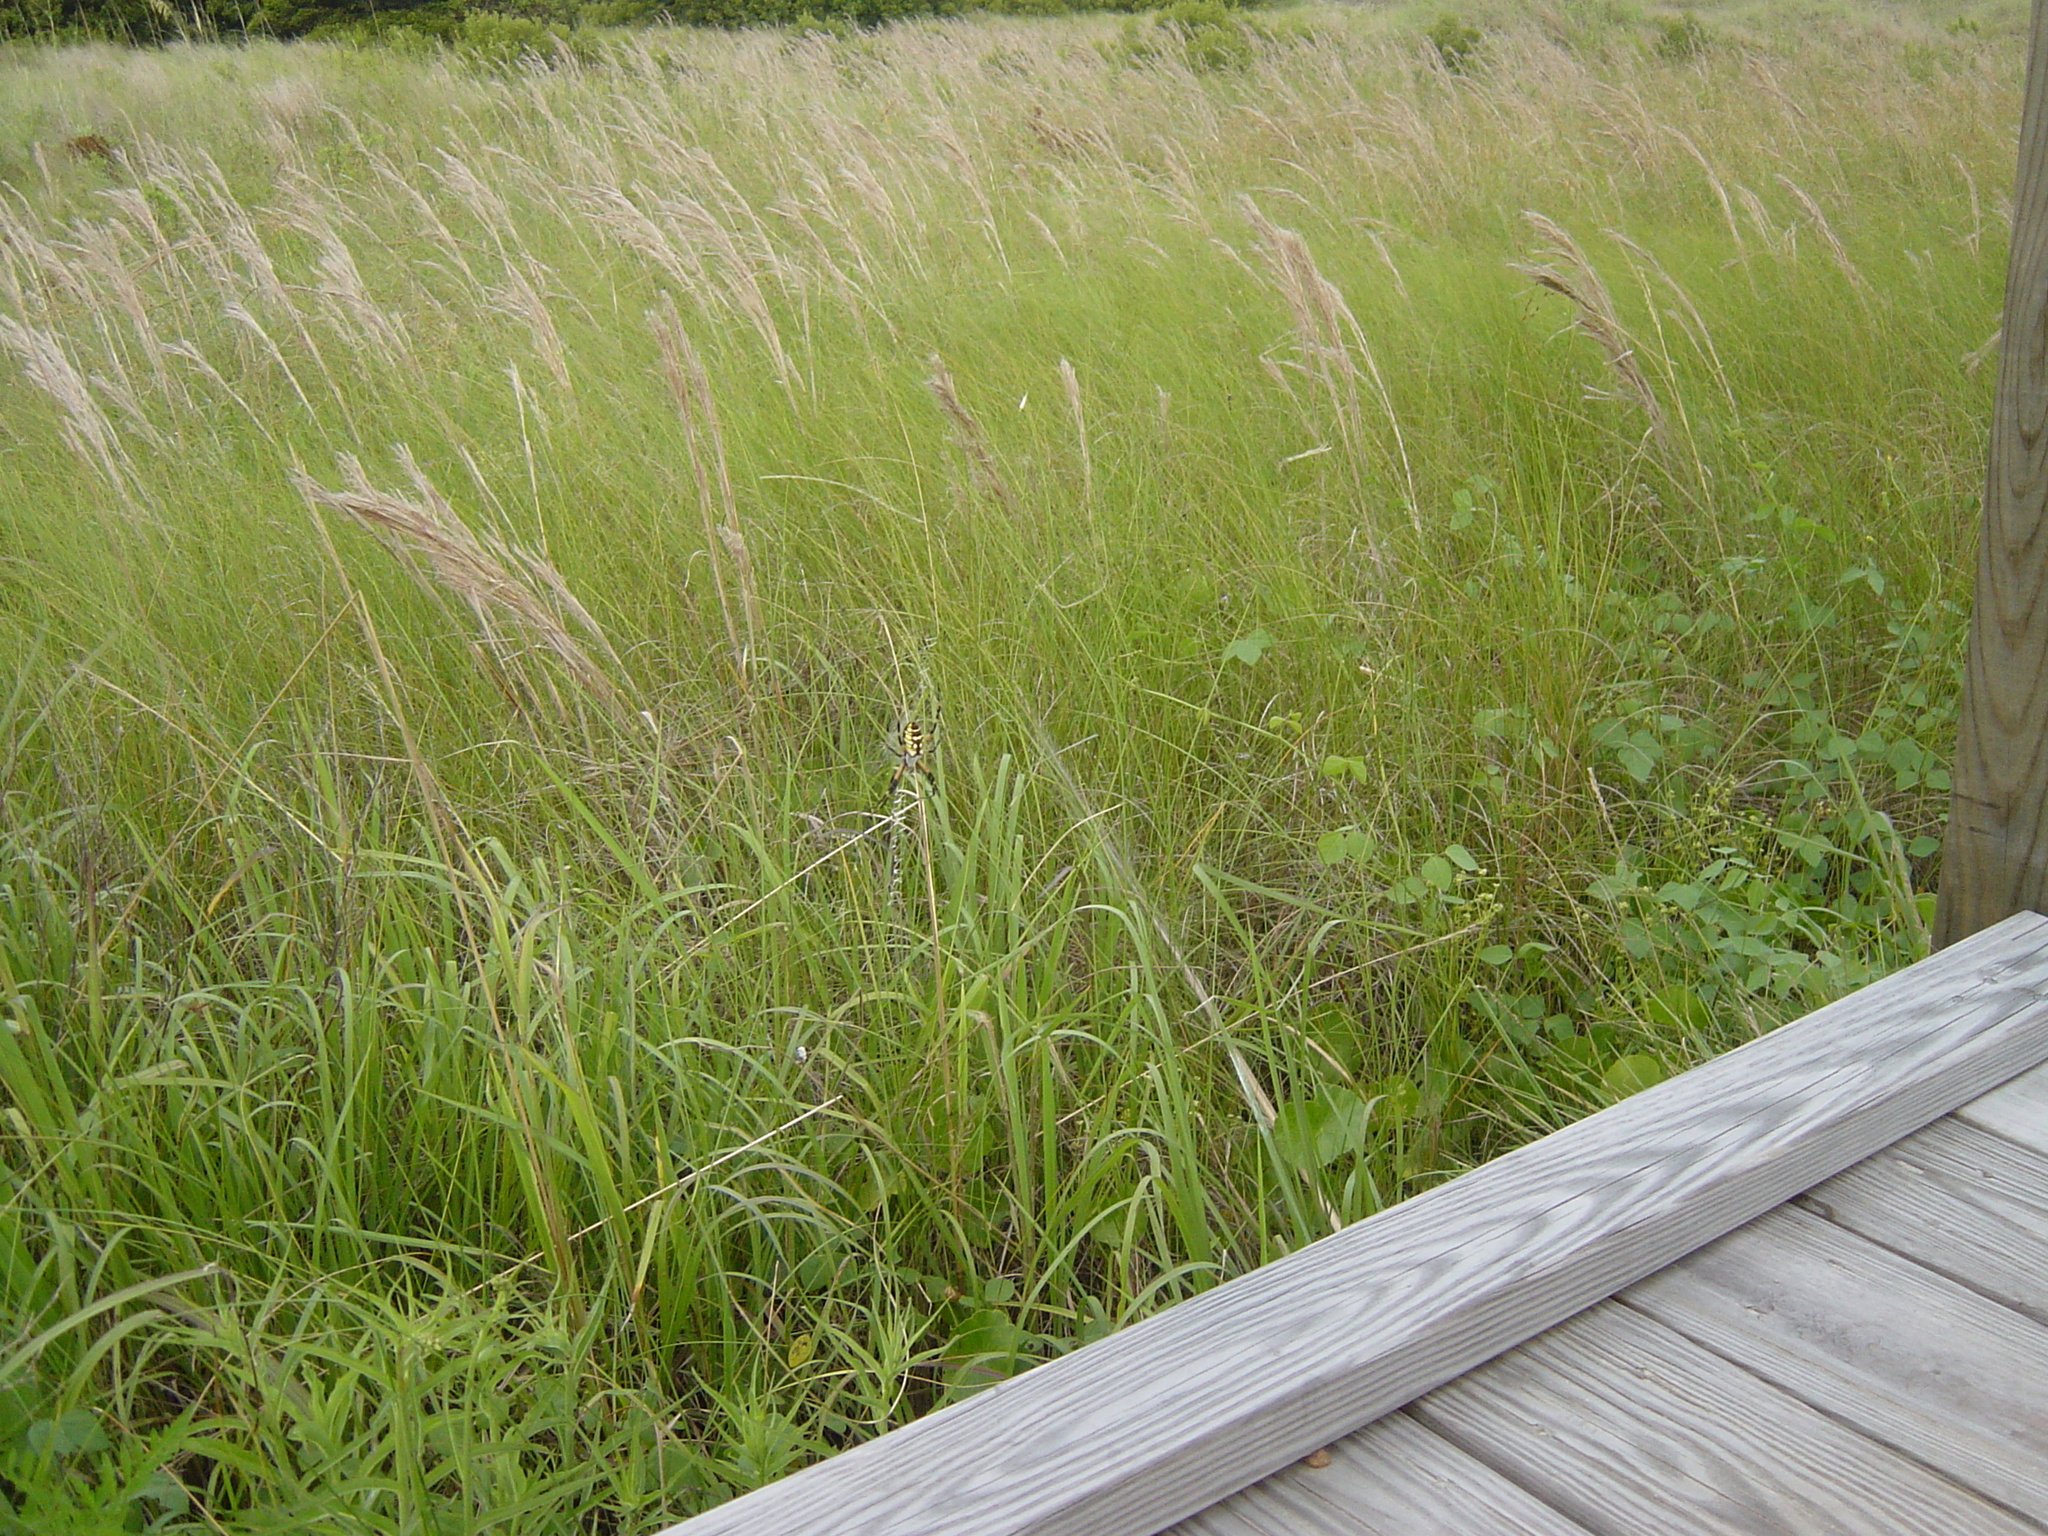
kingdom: Animalia
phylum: Arthropoda
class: Arachnida
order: Araneae
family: Araneidae
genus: Argiope
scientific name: Argiope aurantia
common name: Orb weavers
